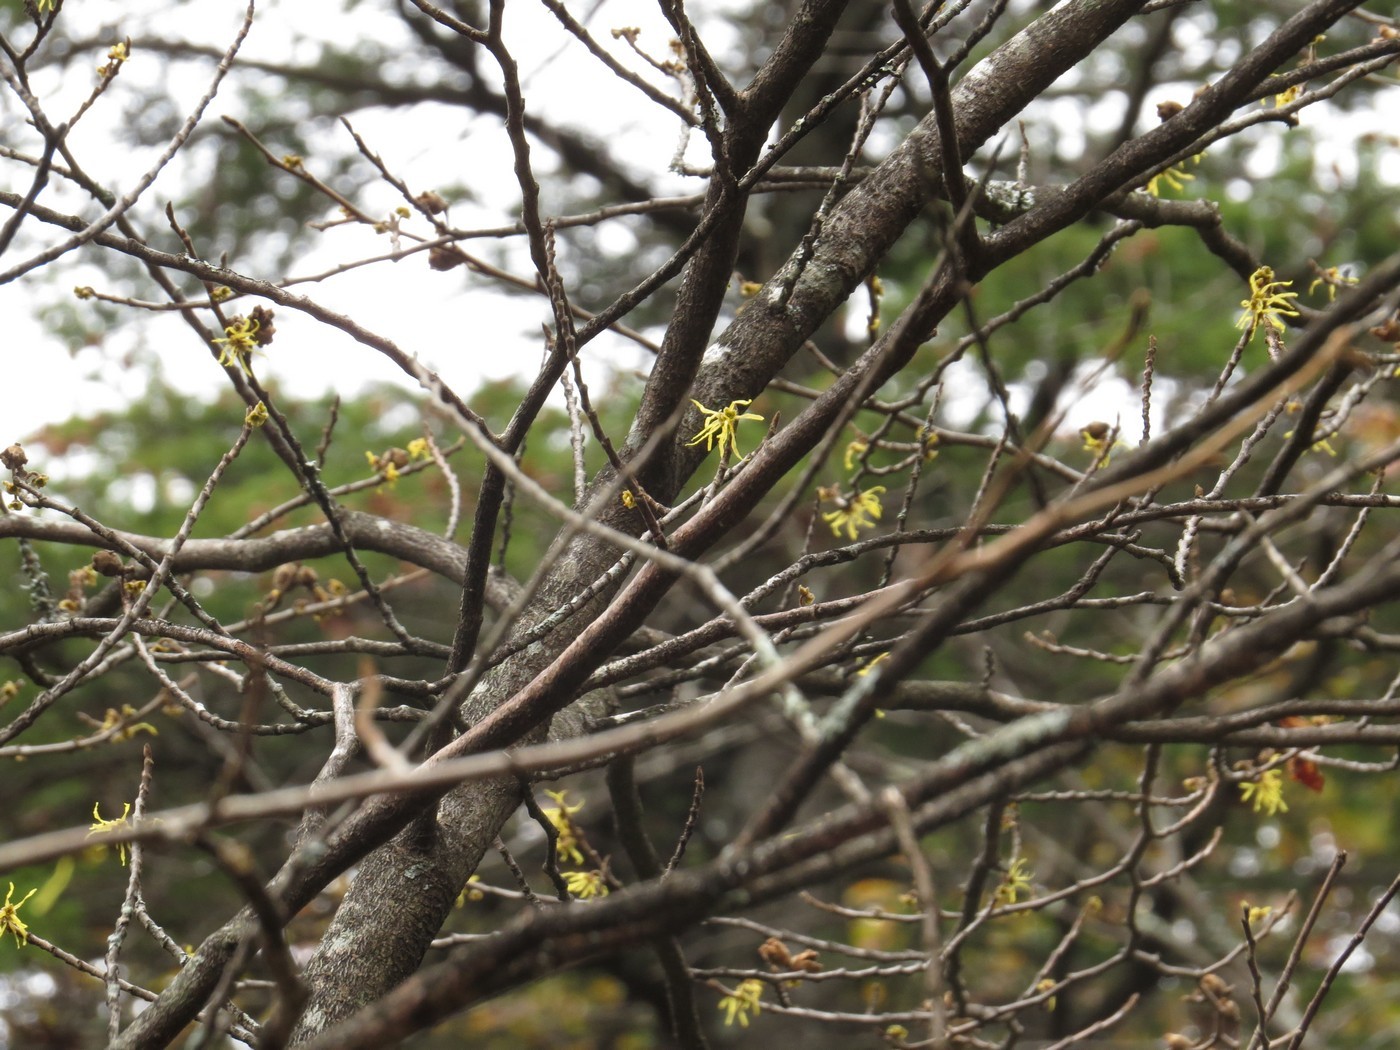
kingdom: Plantae
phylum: Tracheophyta
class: Magnoliopsida
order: Saxifragales
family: Hamamelidaceae
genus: Hamamelis
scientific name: Hamamelis virginiana
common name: Witch-hazel
